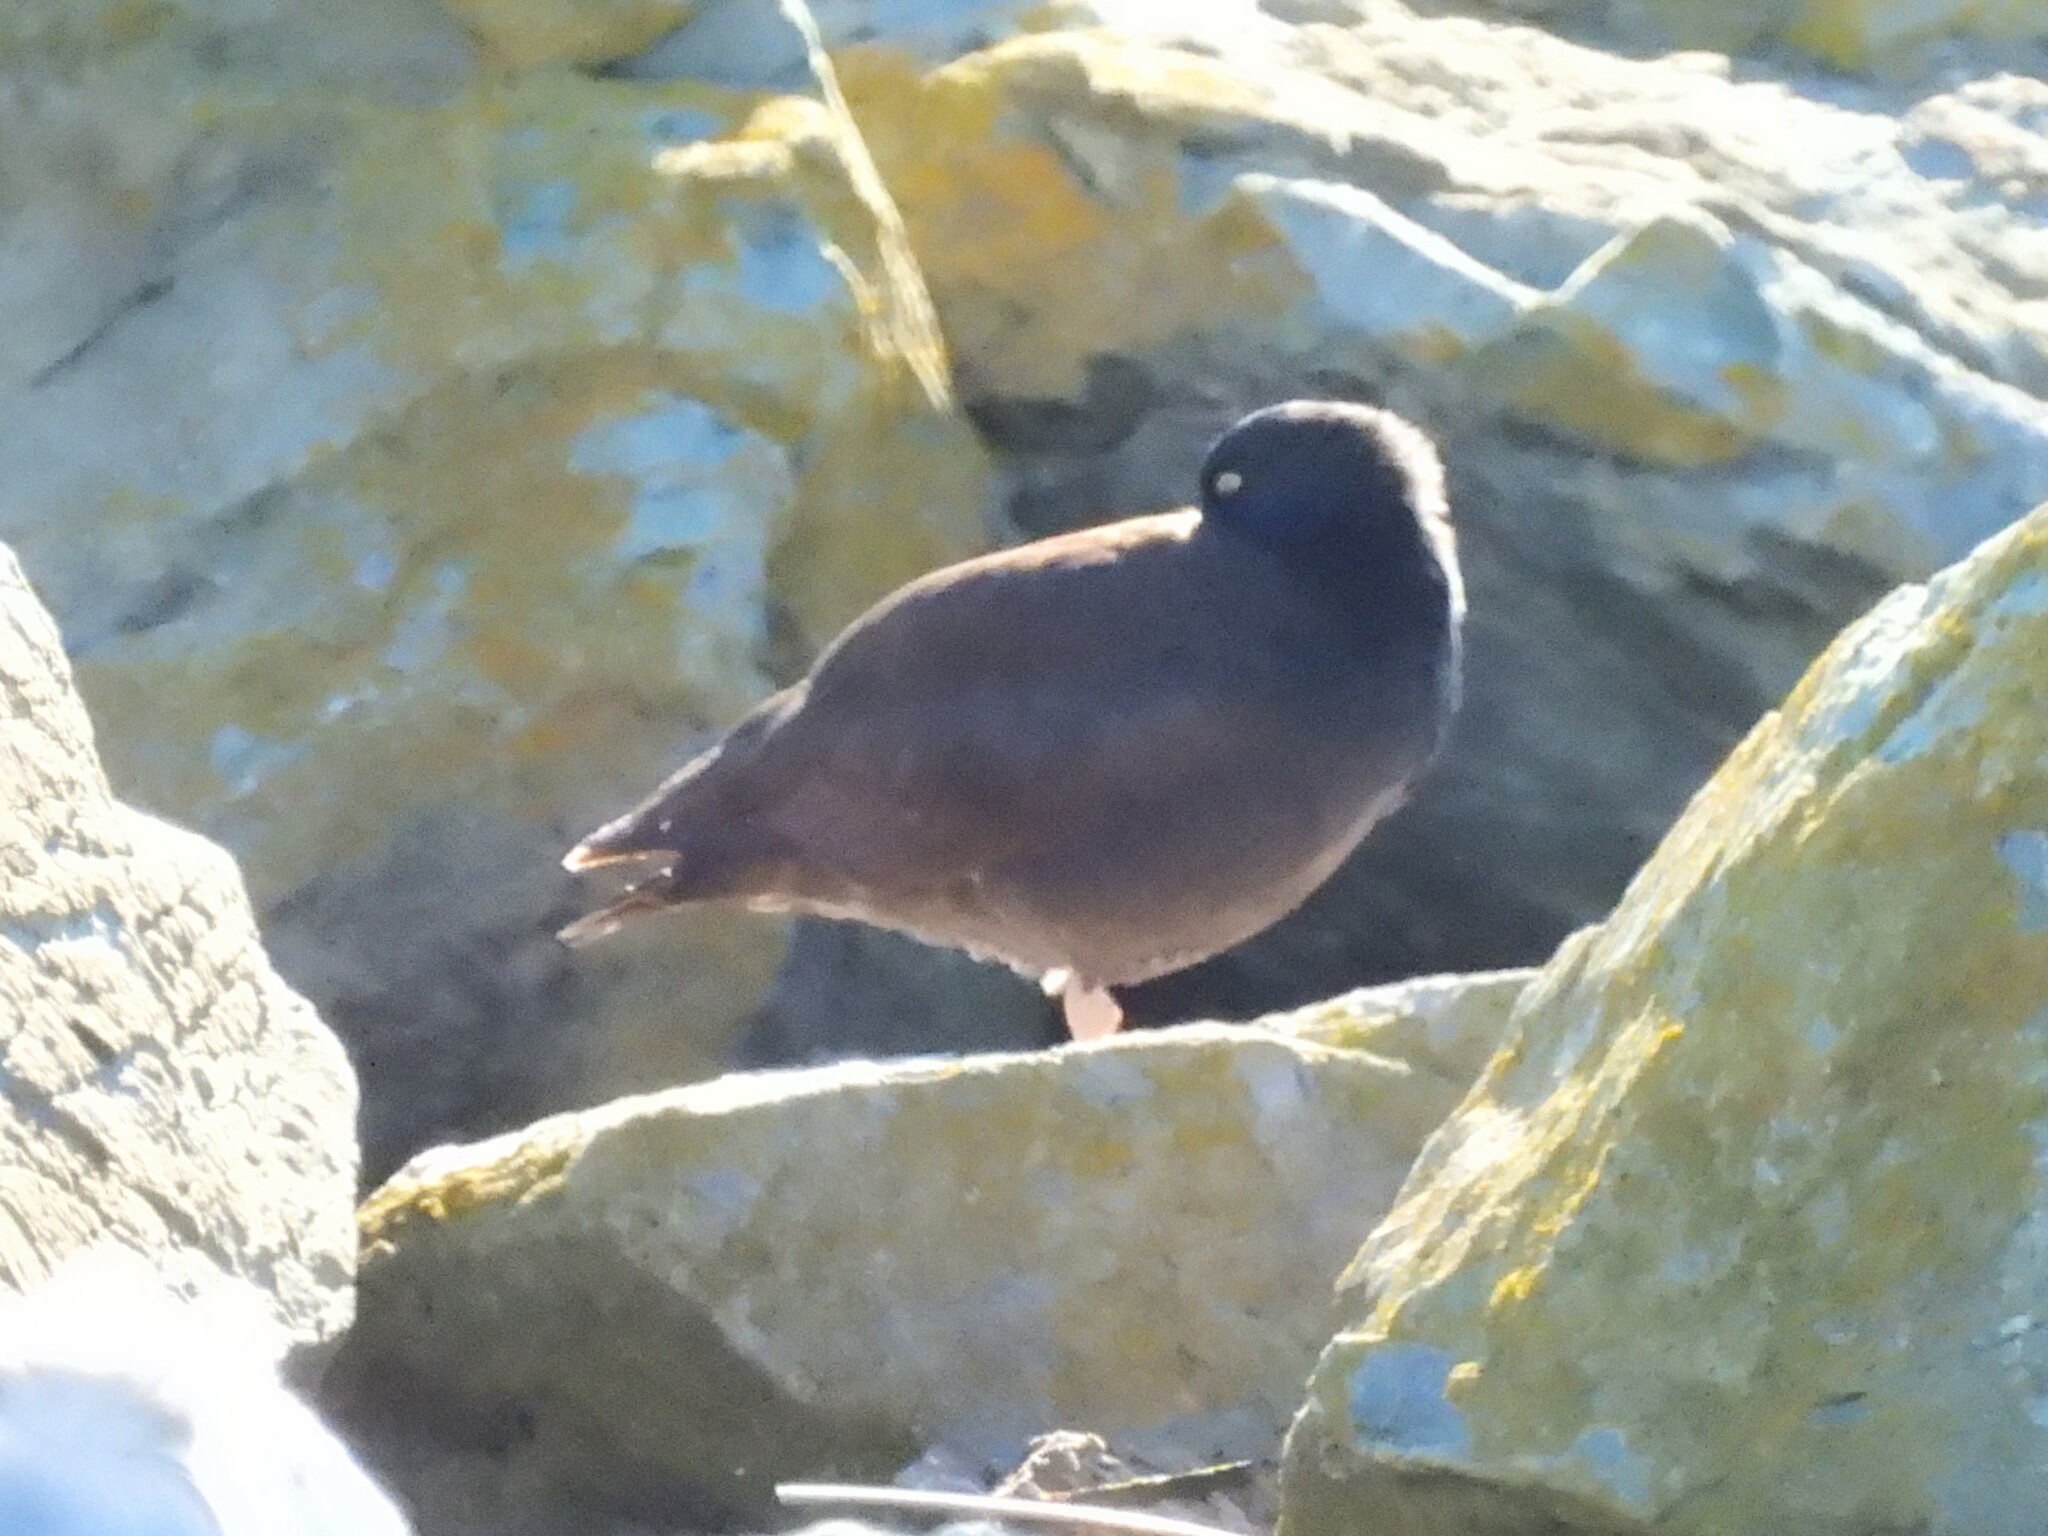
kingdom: Animalia
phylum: Chordata
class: Aves
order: Charadriiformes
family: Haematopodidae
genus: Haematopus
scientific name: Haematopus bachmani
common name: Black oystercatcher
